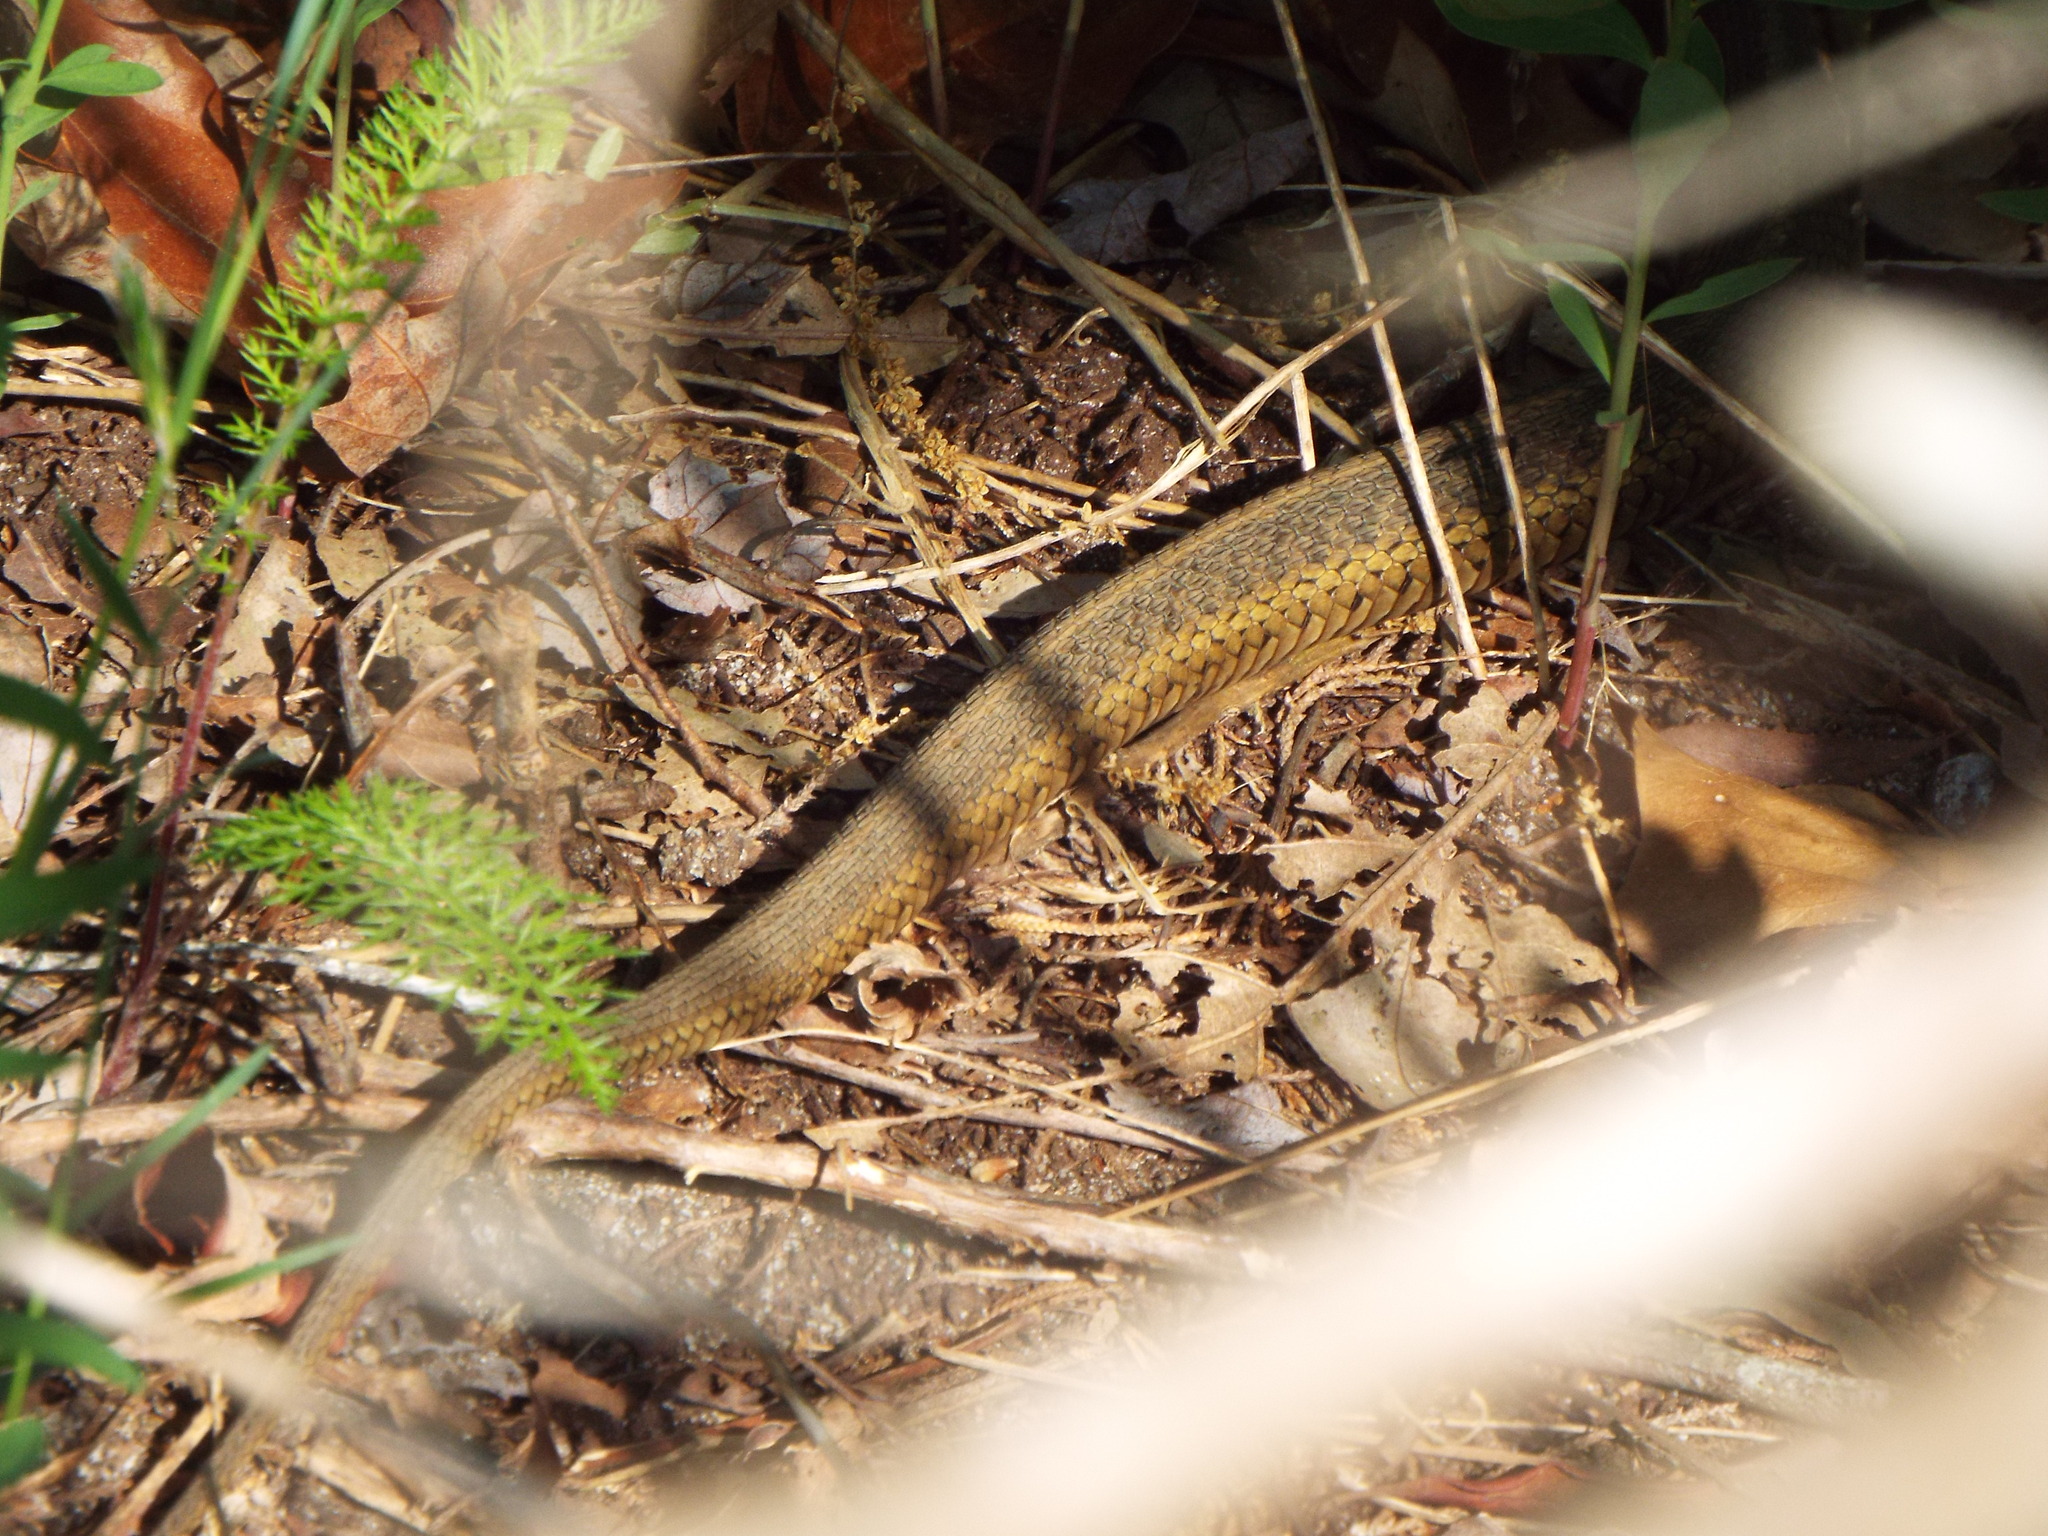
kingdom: Animalia
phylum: Chordata
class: Squamata
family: Colubridae
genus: Thamnophis
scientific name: Thamnophis sirtalis
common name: Common garter snake
